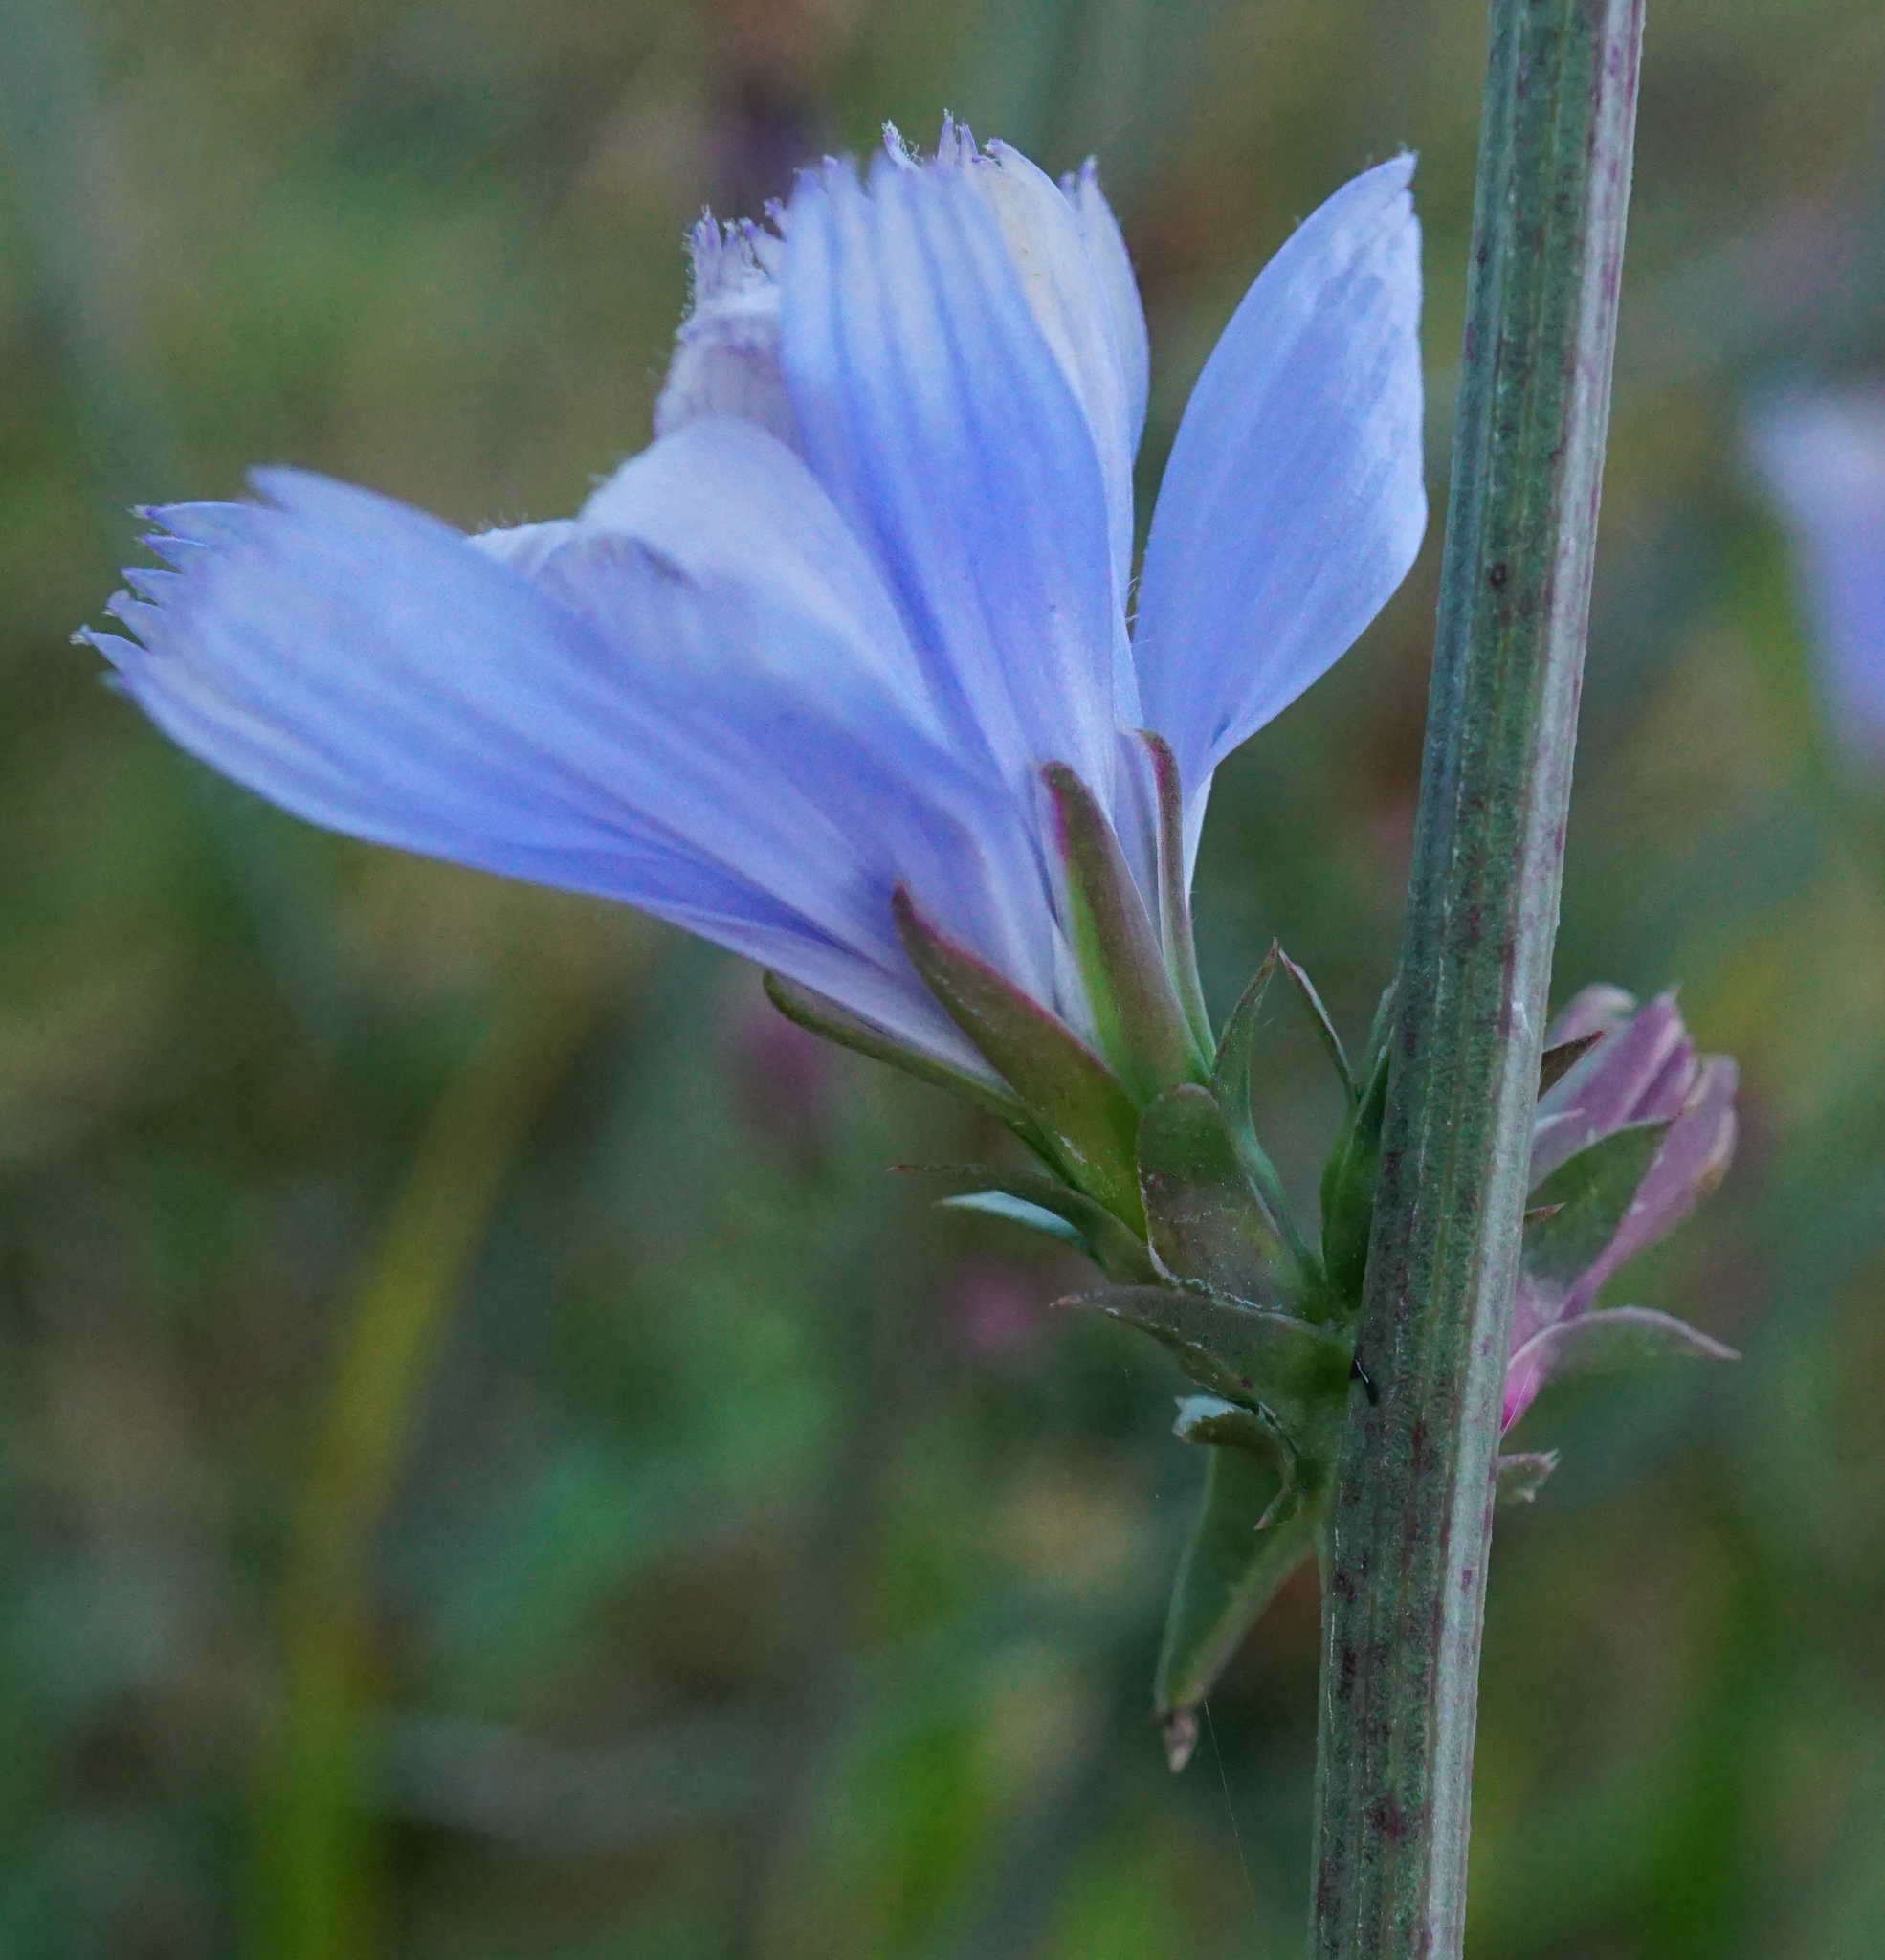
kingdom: Plantae
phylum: Tracheophyta
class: Magnoliopsida
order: Asterales
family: Asteraceae
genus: Cichorium
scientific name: Cichorium intybus
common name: Chicory
